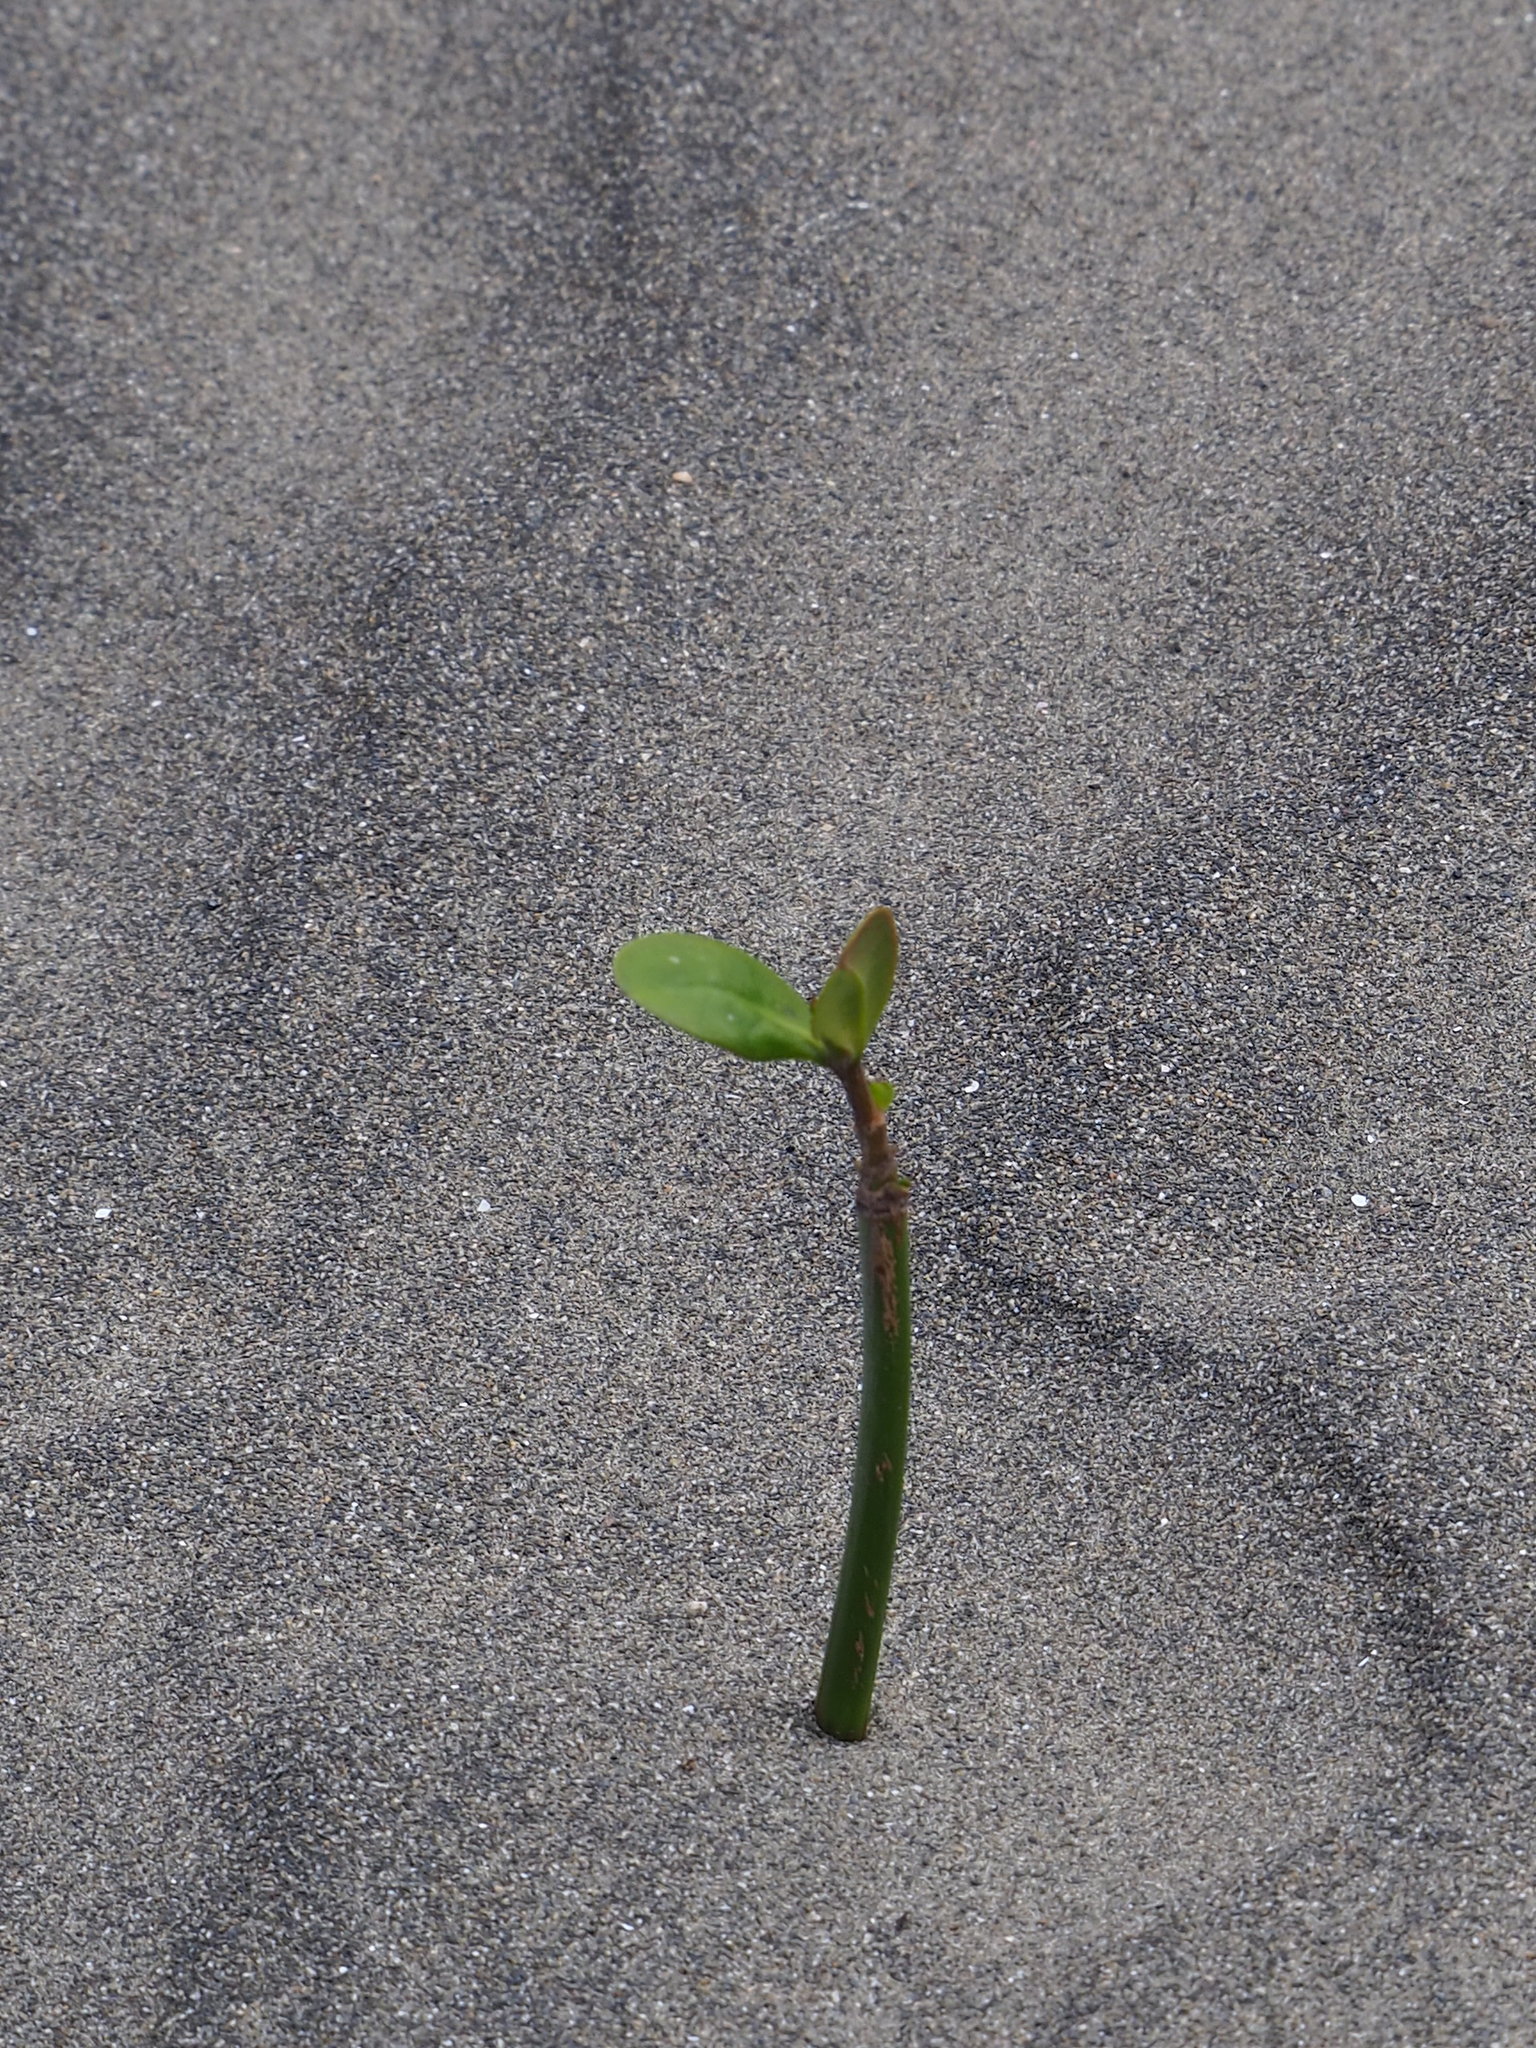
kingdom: Plantae
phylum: Tracheophyta
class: Magnoliopsida
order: Malpighiales
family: Rhizophoraceae
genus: Kandelia
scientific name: Kandelia obovata
